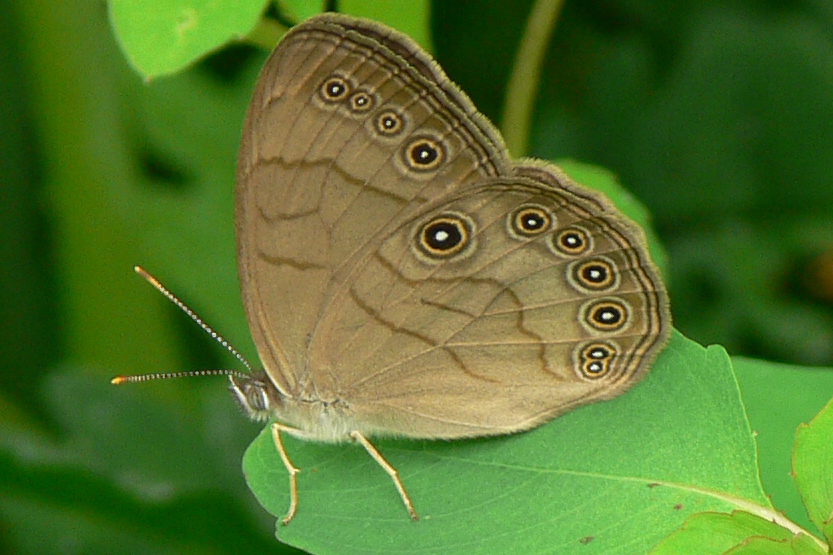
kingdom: Animalia
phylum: Arthropoda
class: Insecta
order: Lepidoptera
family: Nymphalidae
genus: Lethe
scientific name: Lethe eurydice
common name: Eyed brown
